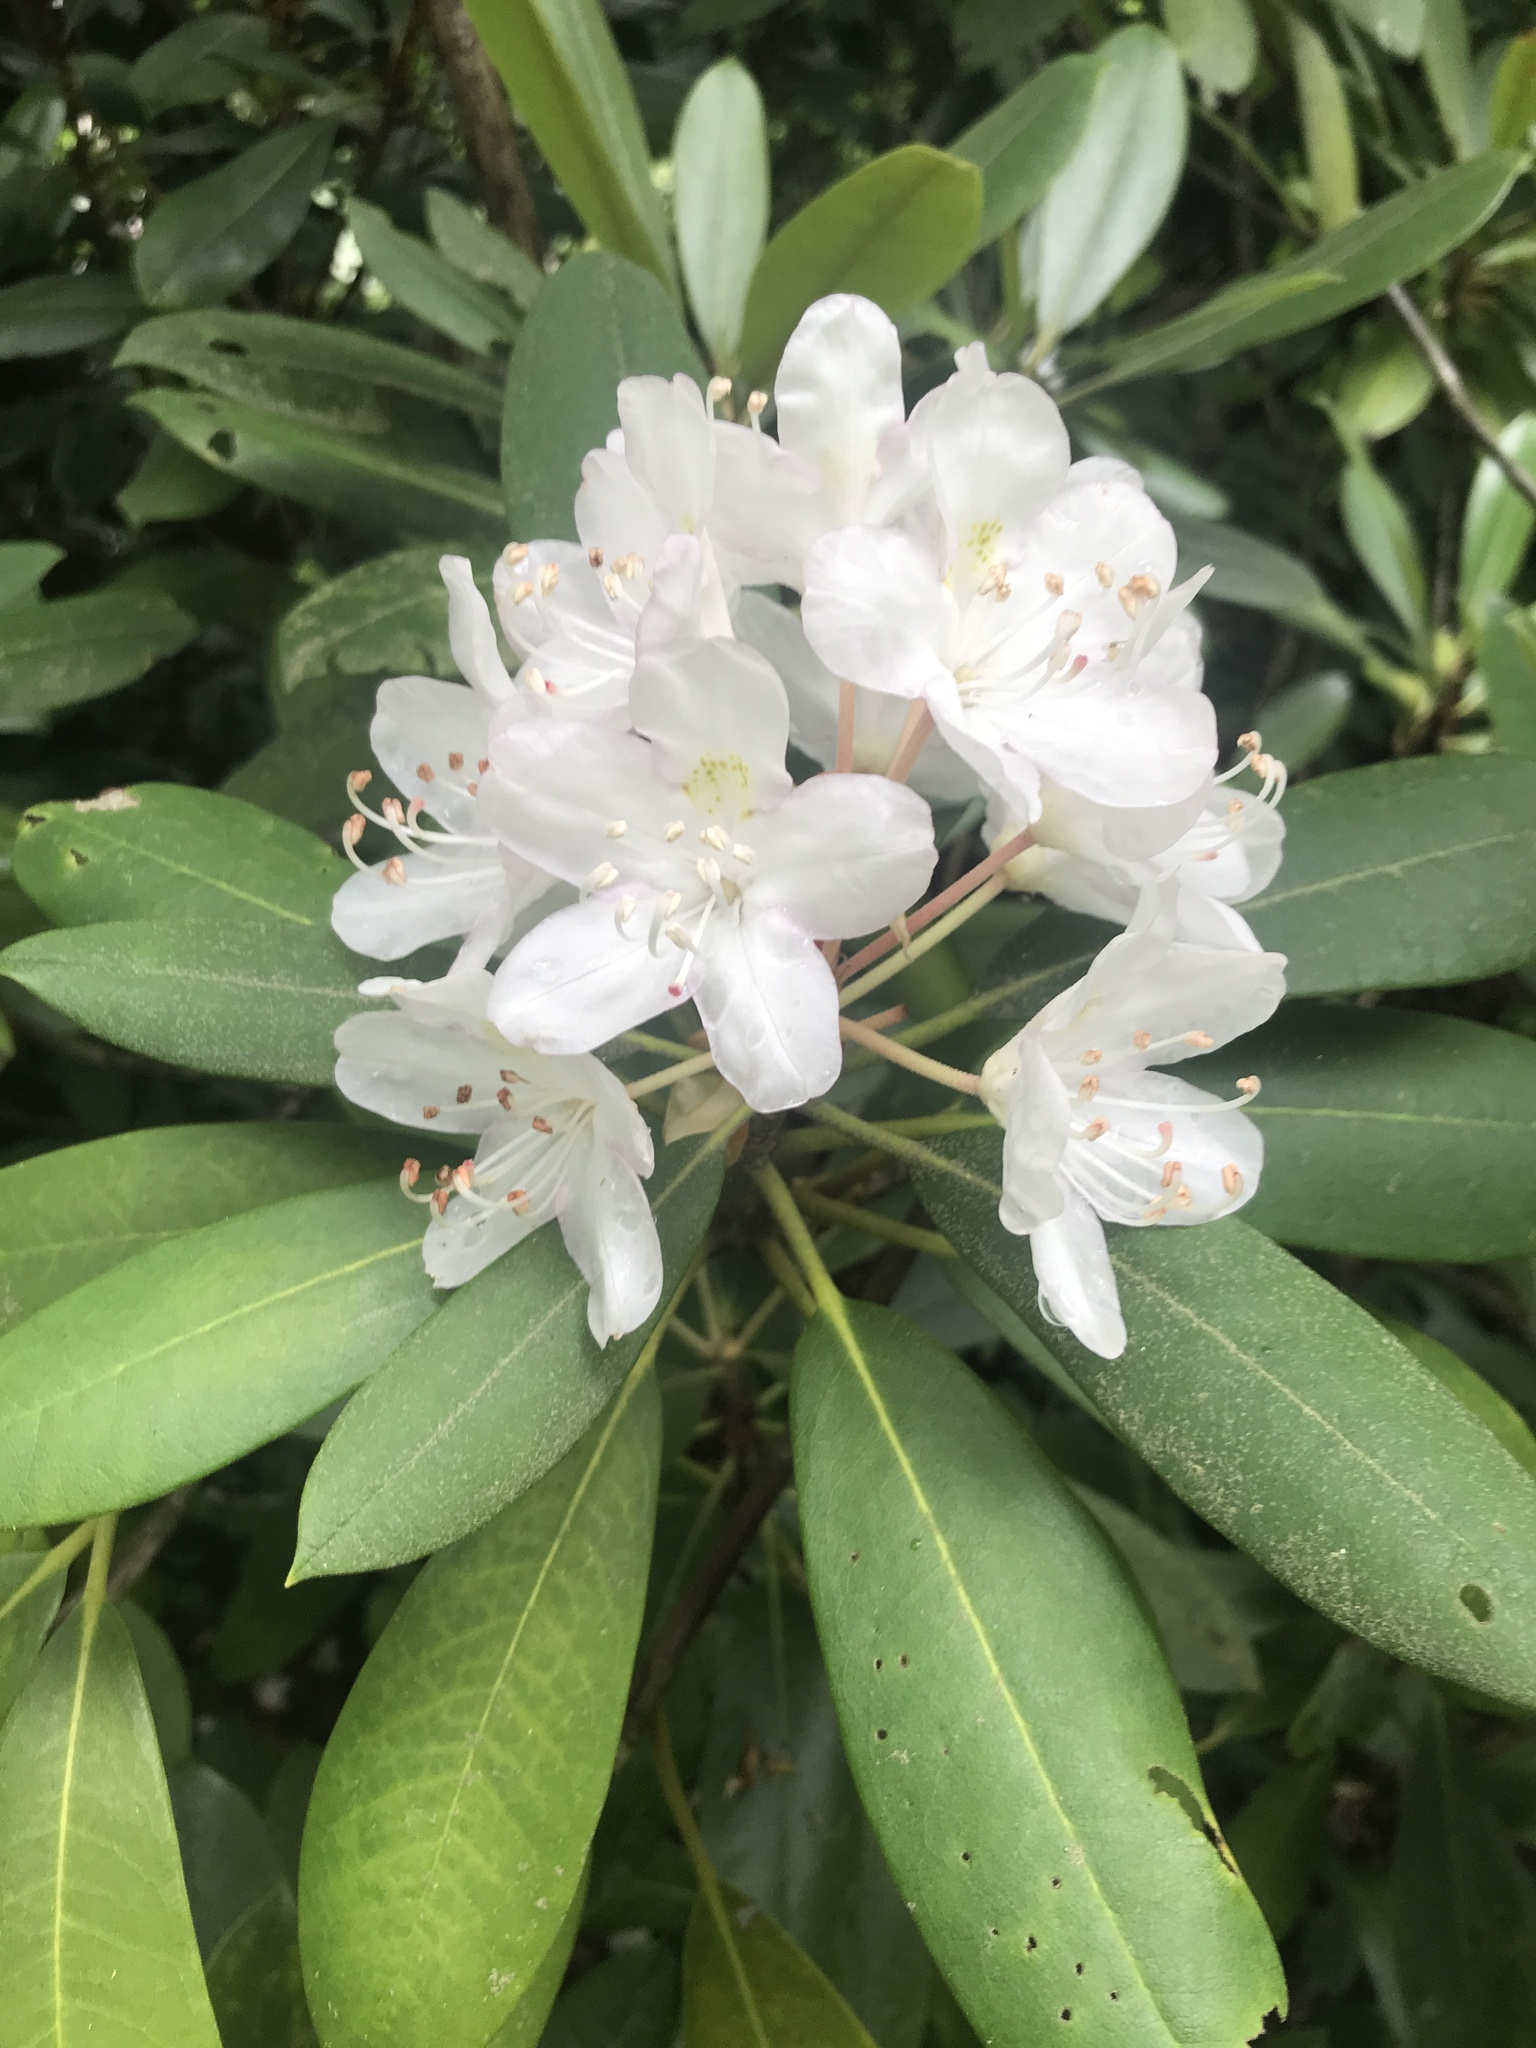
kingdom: Plantae
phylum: Tracheophyta
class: Magnoliopsida
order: Ericales
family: Ericaceae
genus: Rhododendron
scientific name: Rhododendron maximum
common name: Great rhododendron
